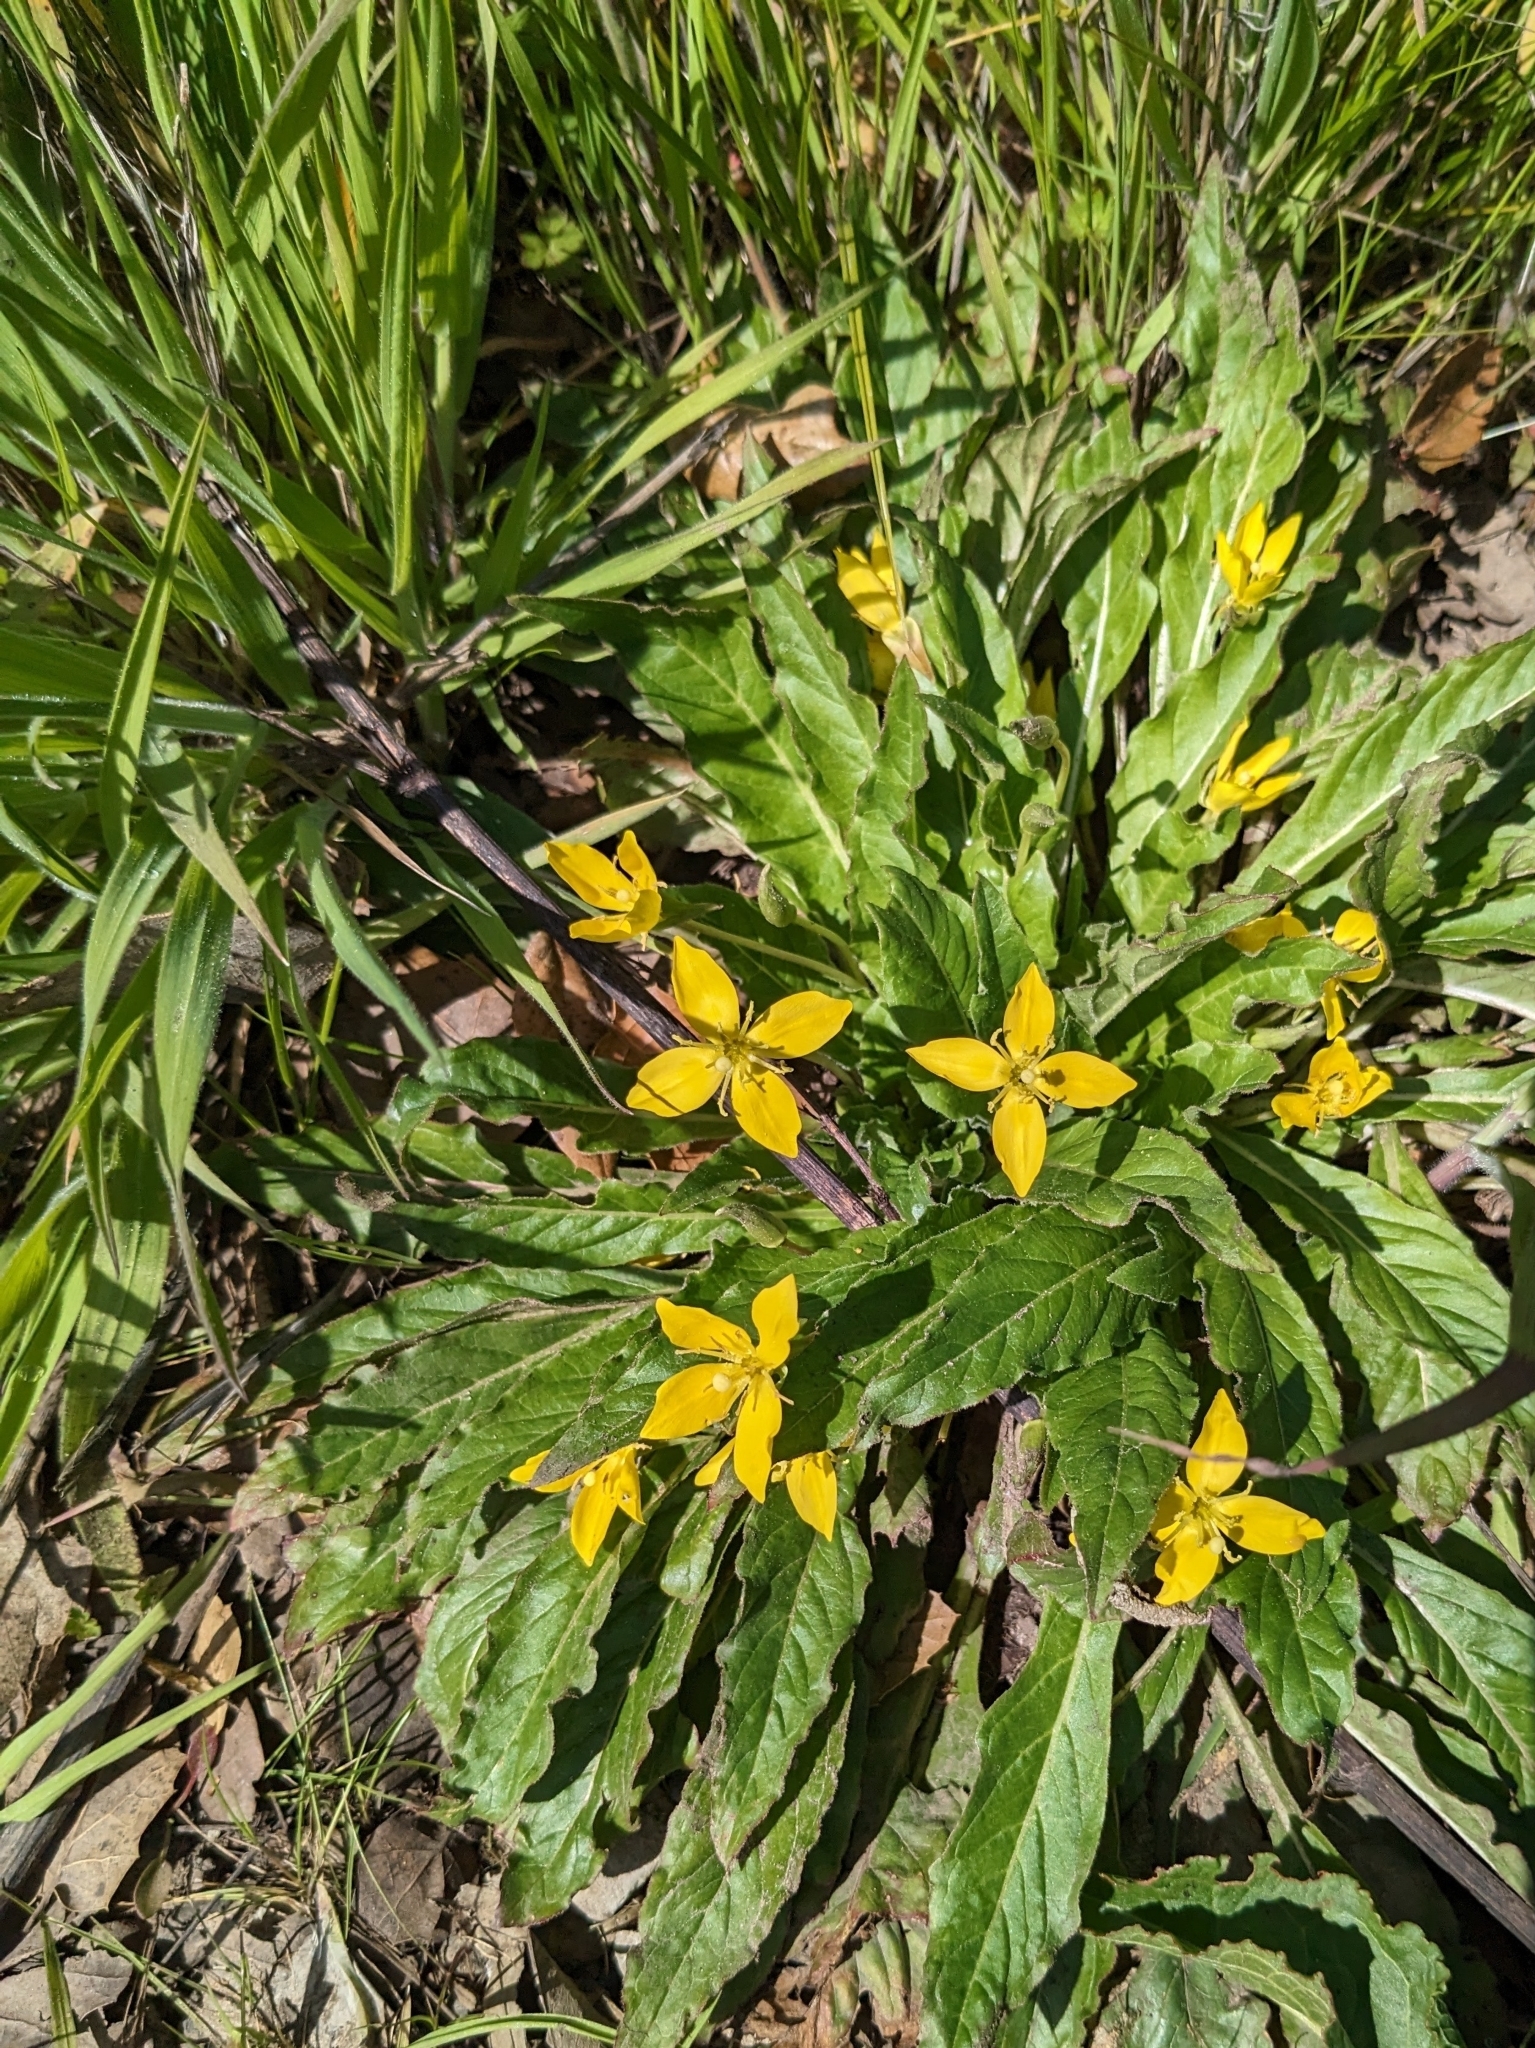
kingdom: Plantae
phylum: Tracheophyta
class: Magnoliopsida
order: Myrtales
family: Onagraceae
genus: Taraxia
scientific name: Taraxia ovata
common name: Goldeneggs
